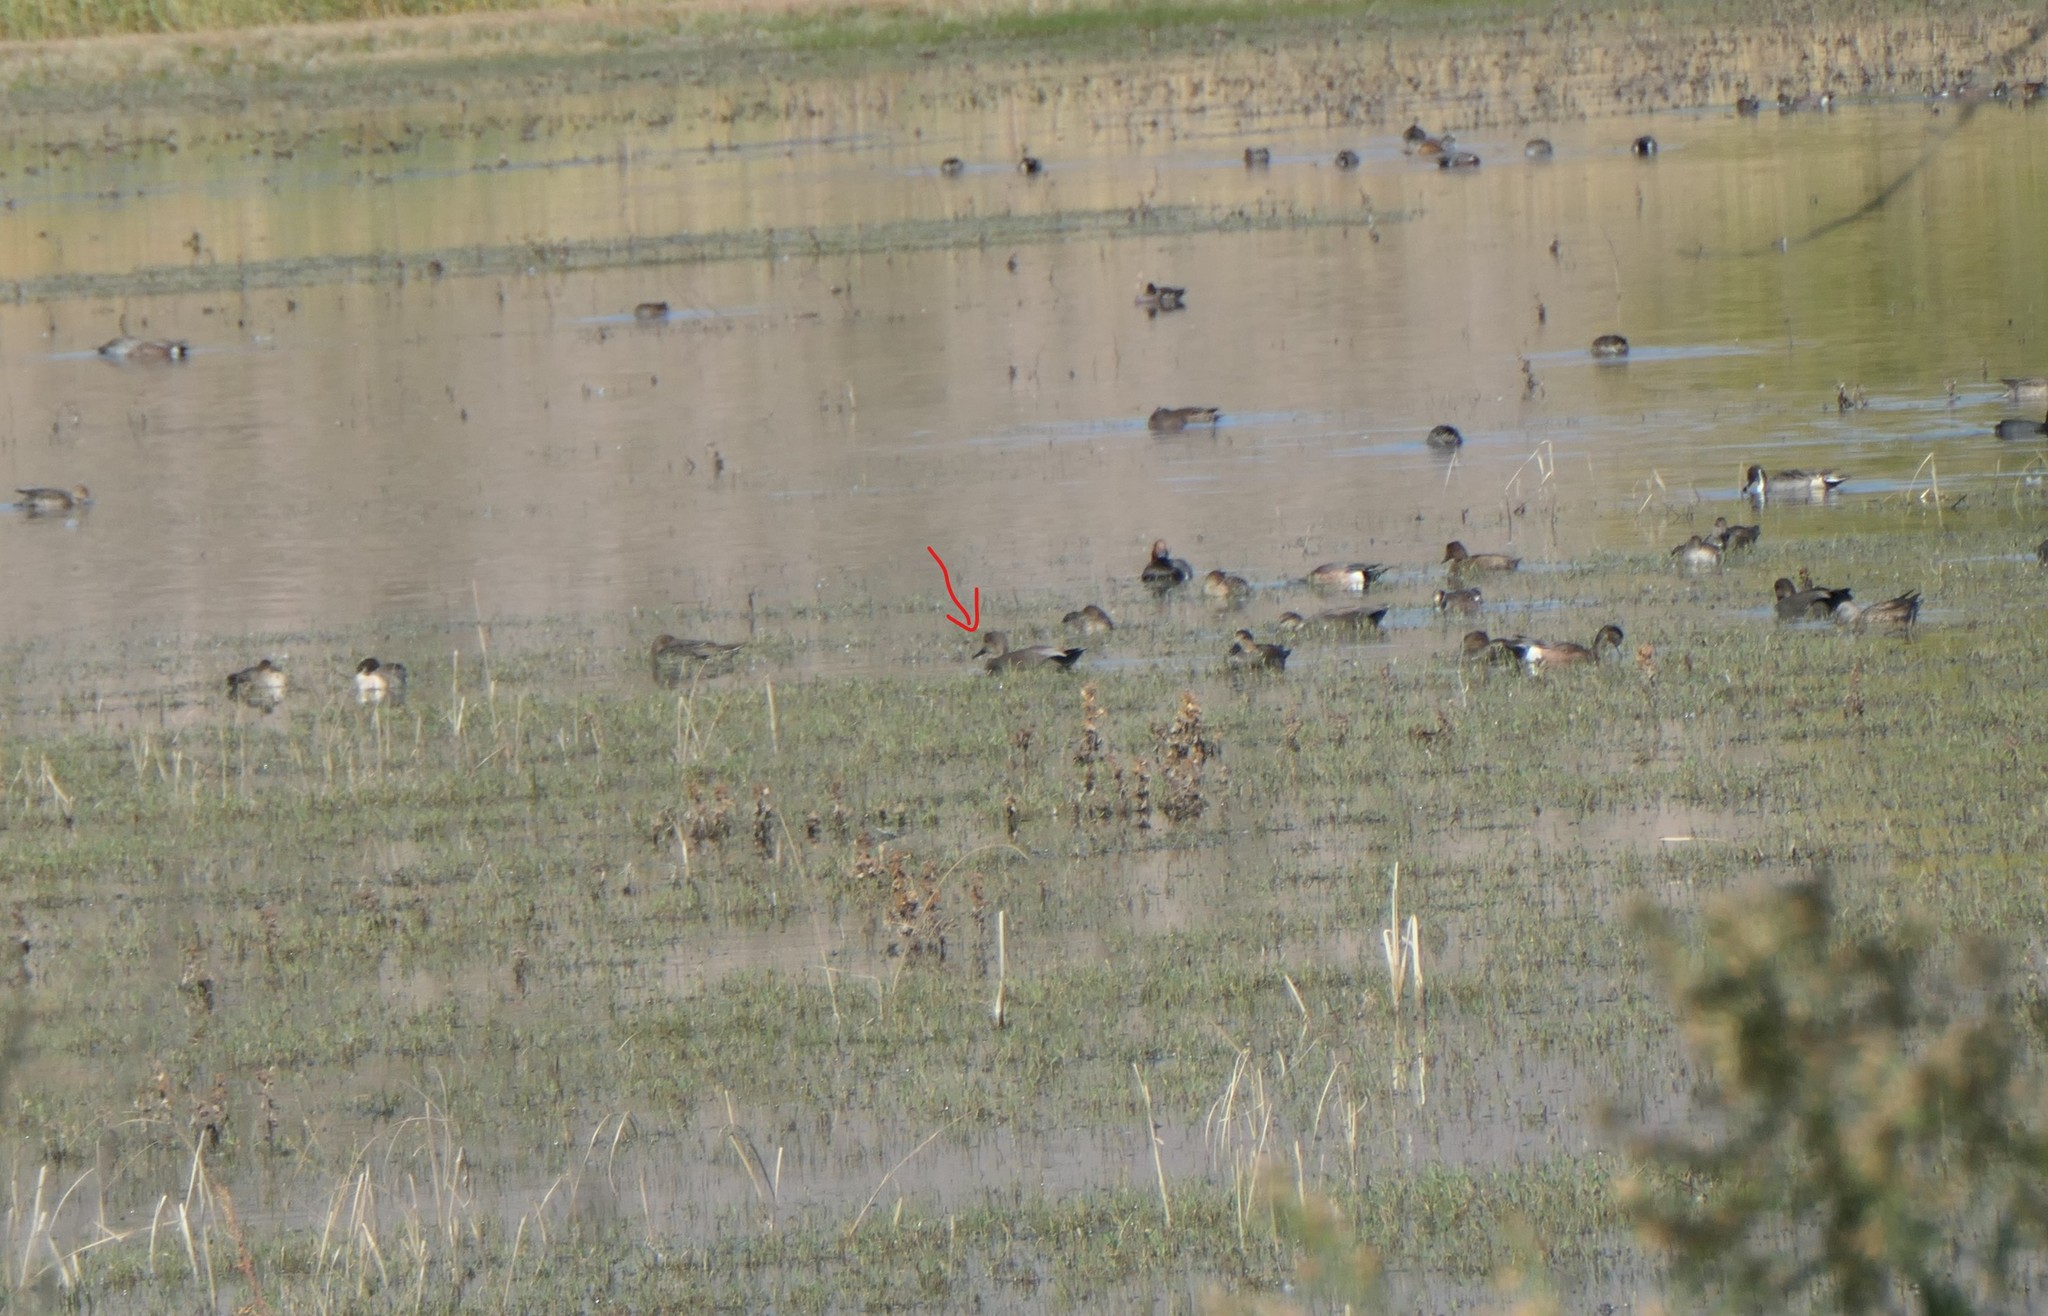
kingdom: Animalia
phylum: Chordata
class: Aves
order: Anseriformes
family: Anatidae
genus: Mareca
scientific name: Mareca strepera
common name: Gadwall
